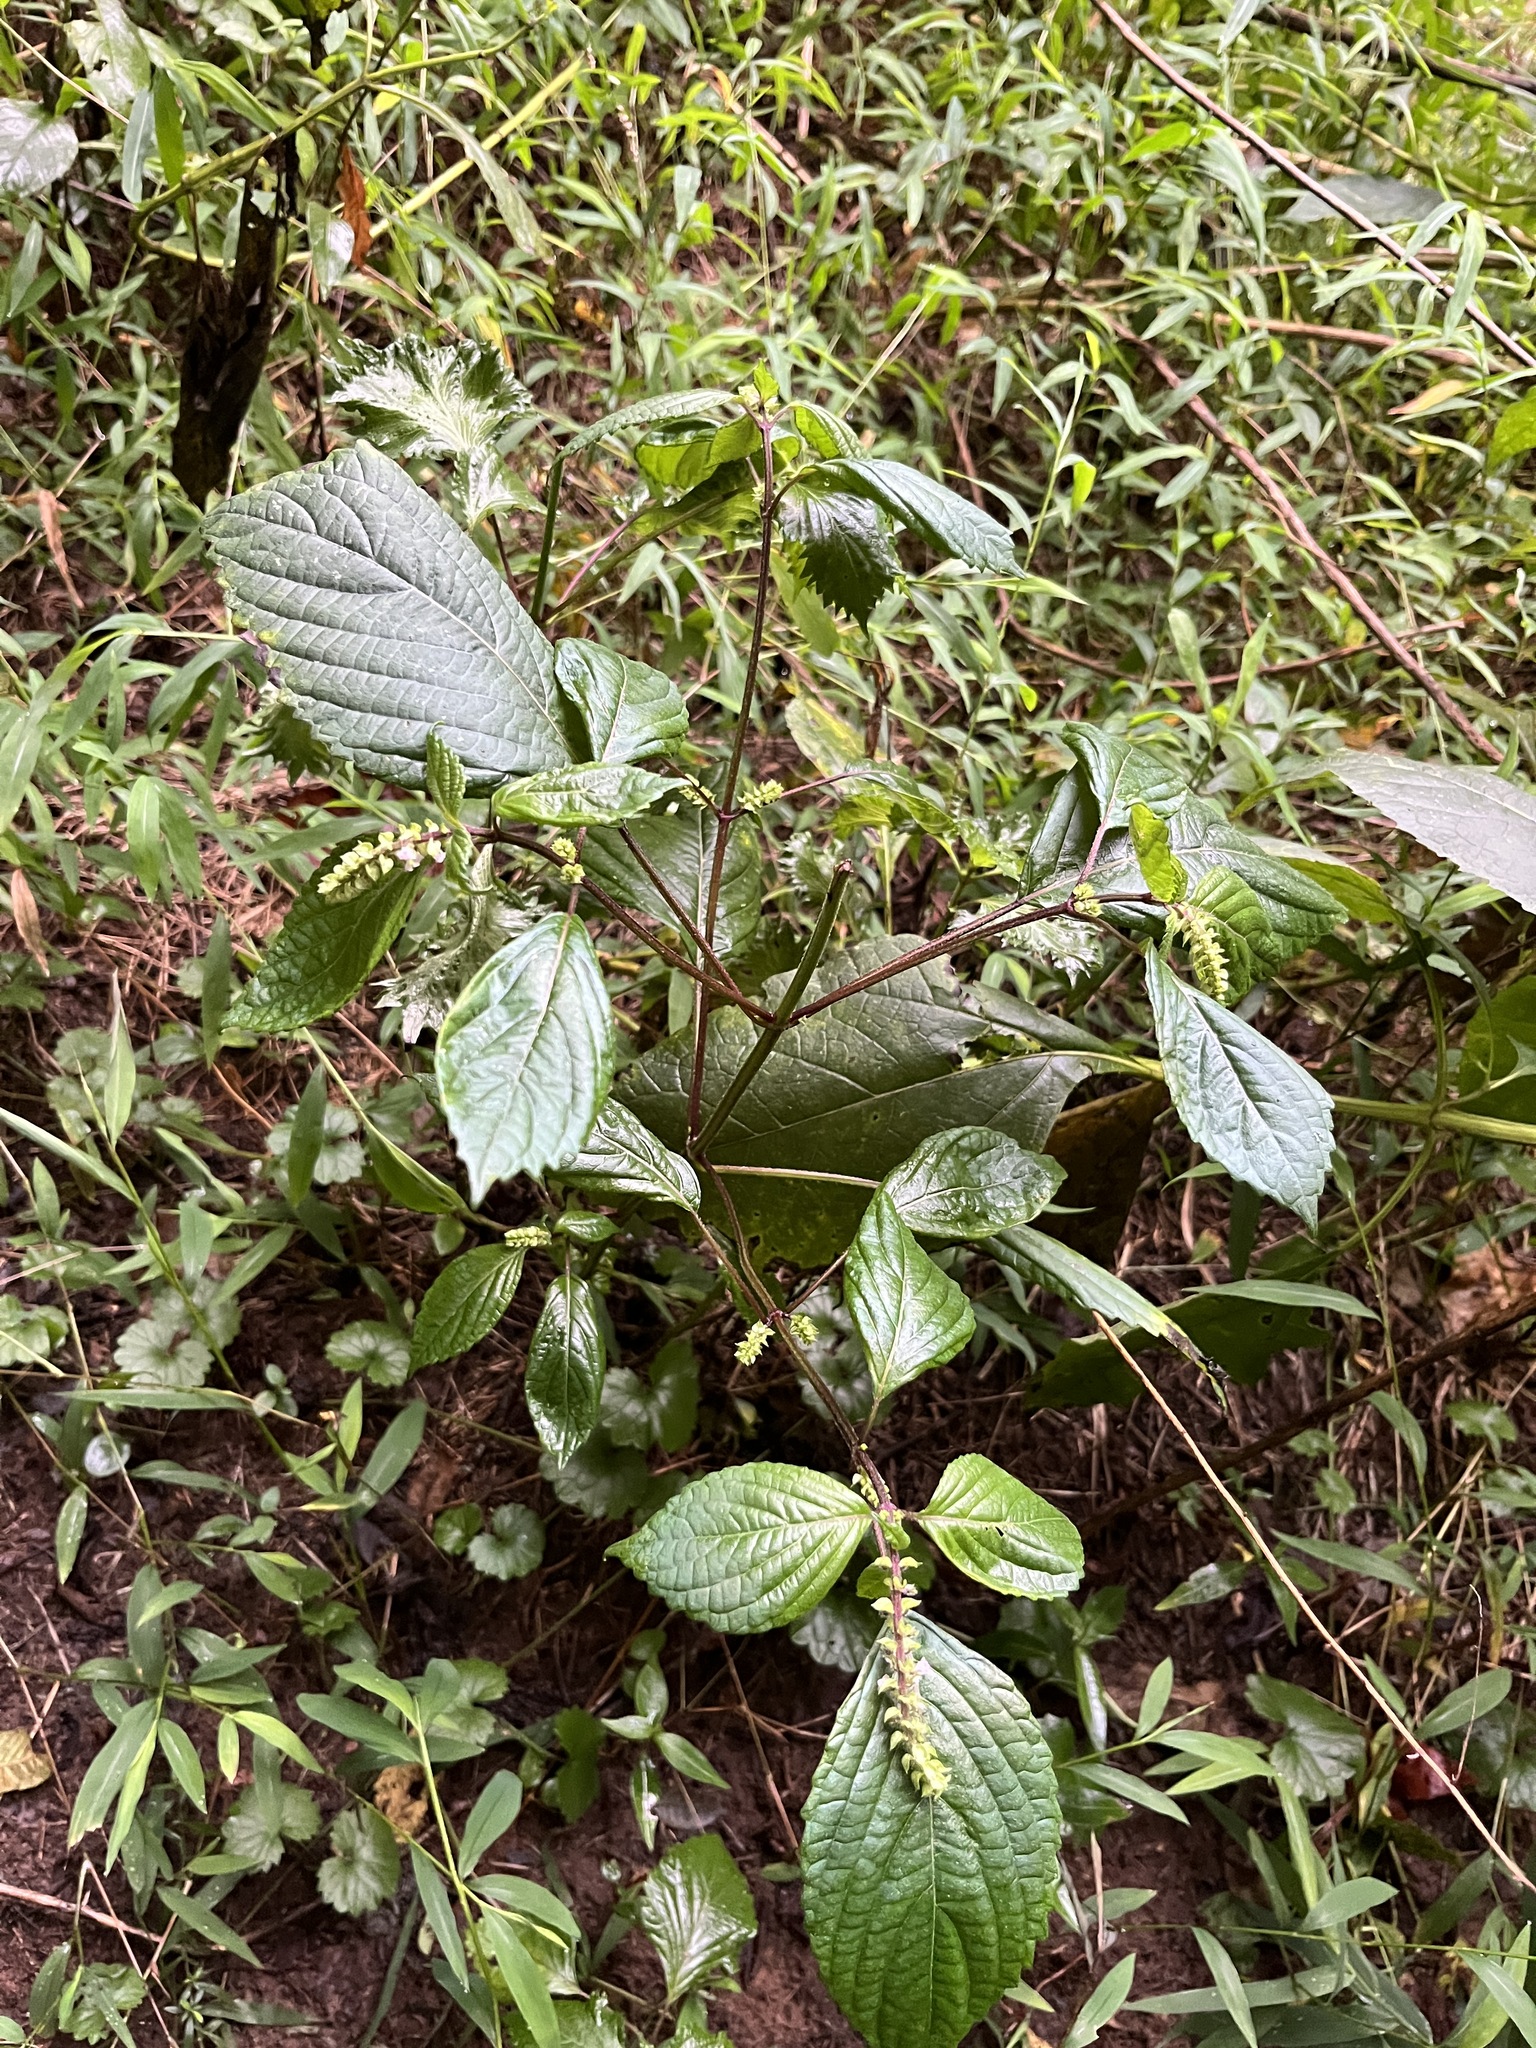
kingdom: Plantae
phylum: Tracheophyta
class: Magnoliopsida
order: Lamiales
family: Lamiaceae
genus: Perilla
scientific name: Perilla frutescens
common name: Perilla
